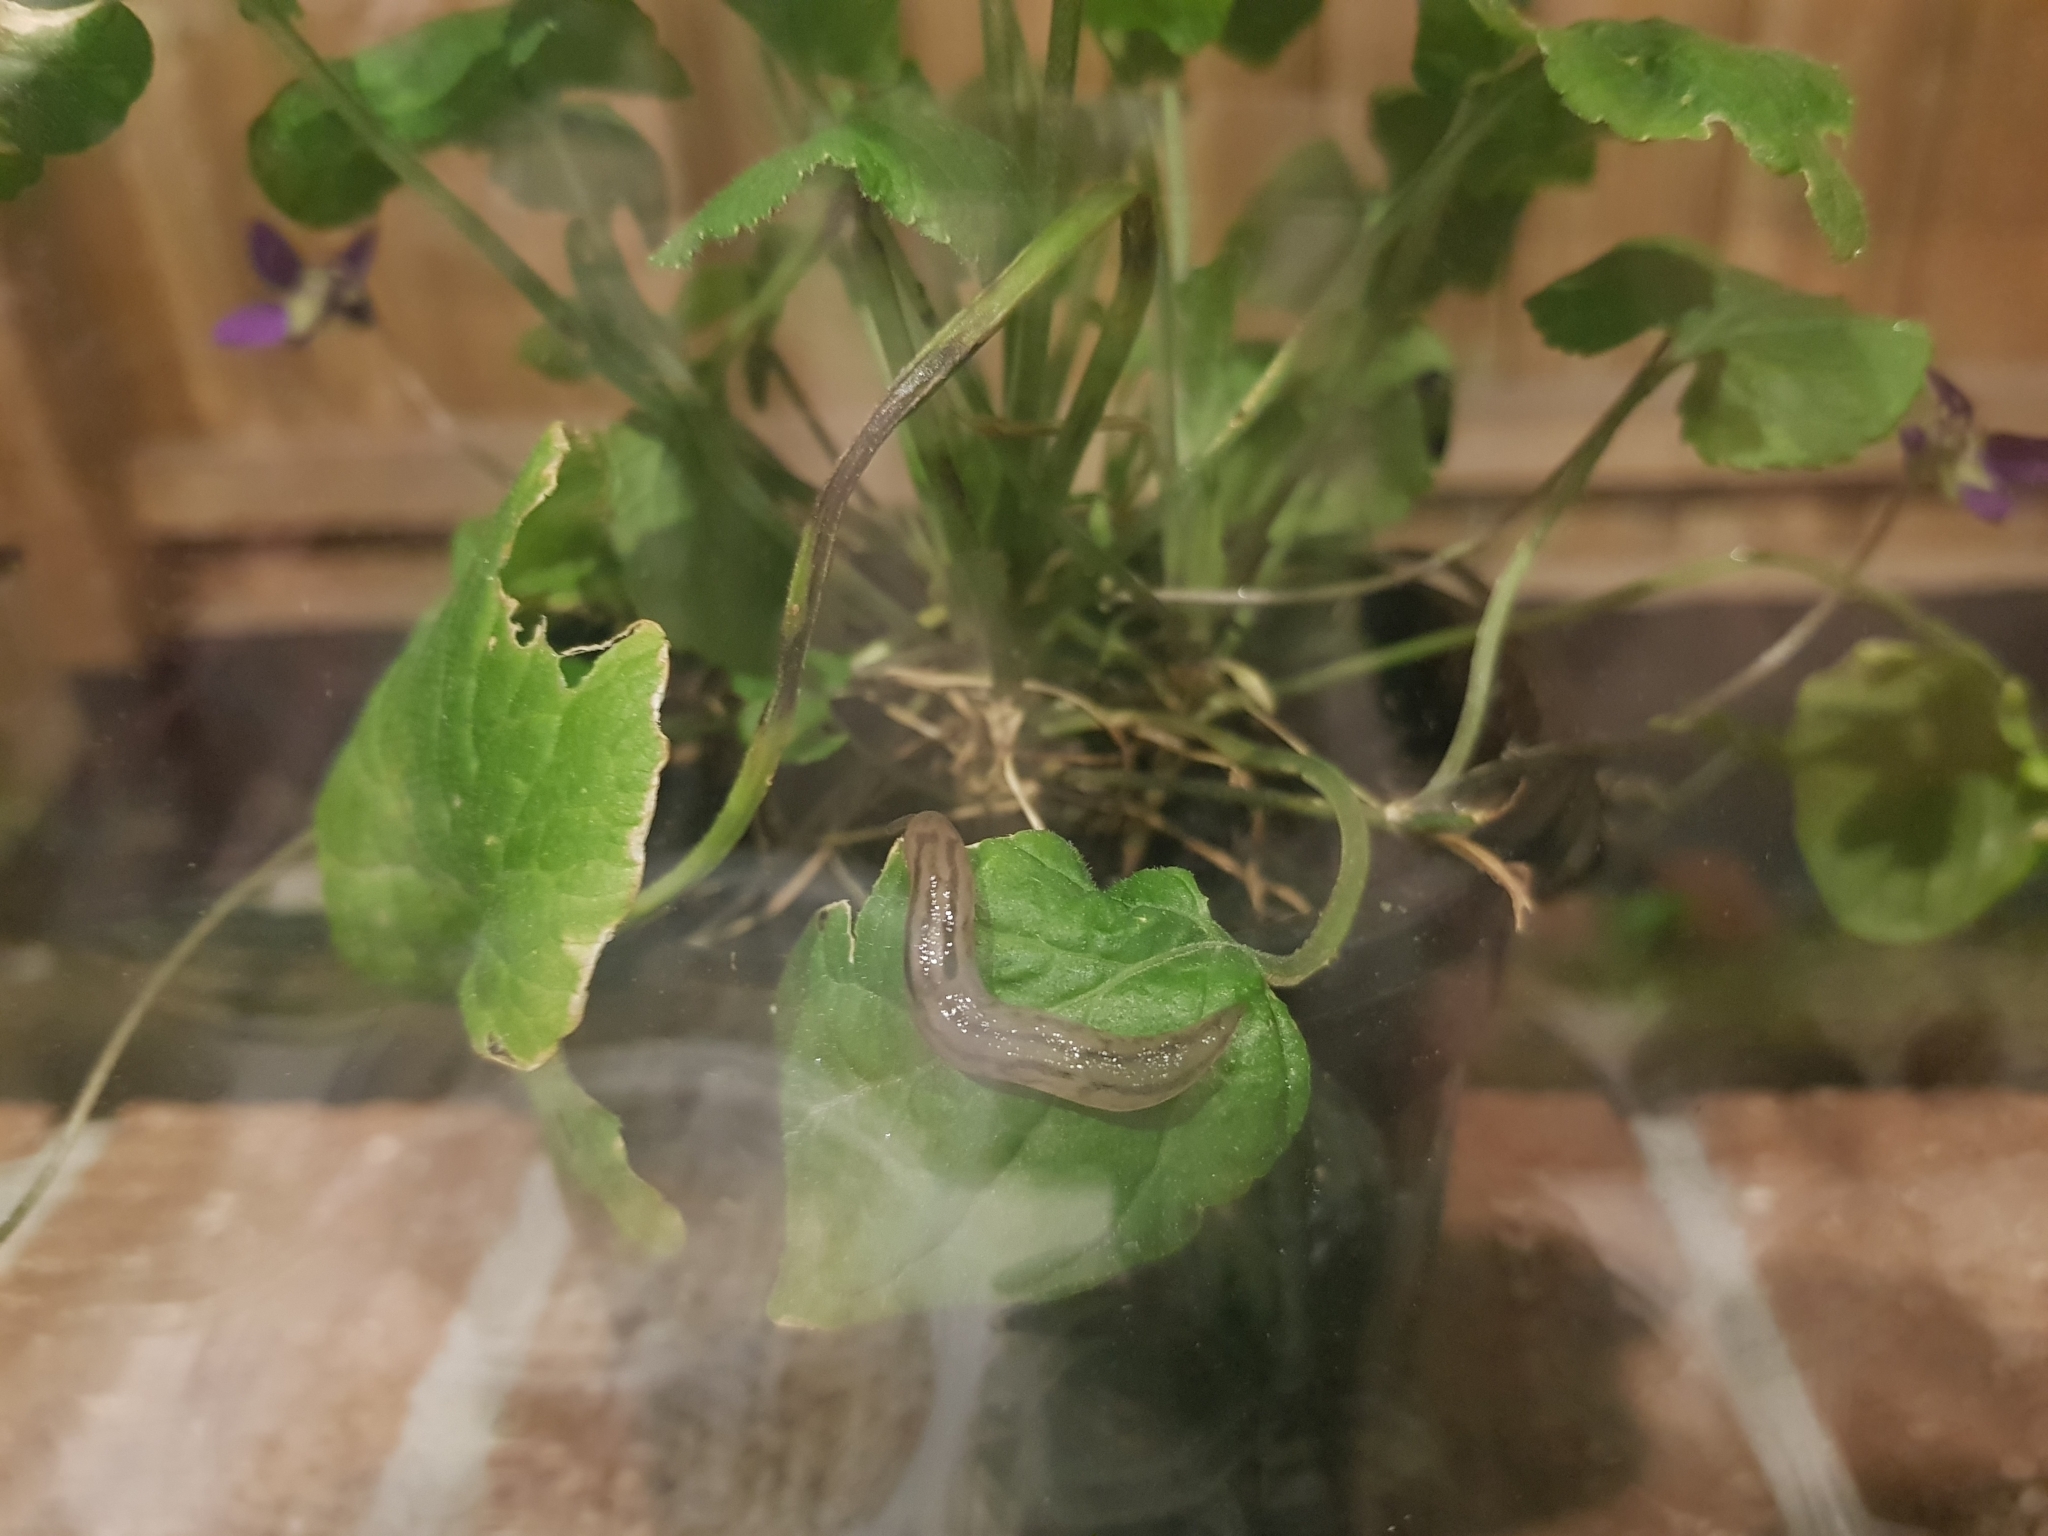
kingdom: Animalia
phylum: Mollusca
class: Gastropoda
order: Stylommatophora
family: Limacidae
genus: Ambigolimax
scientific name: Ambigolimax
